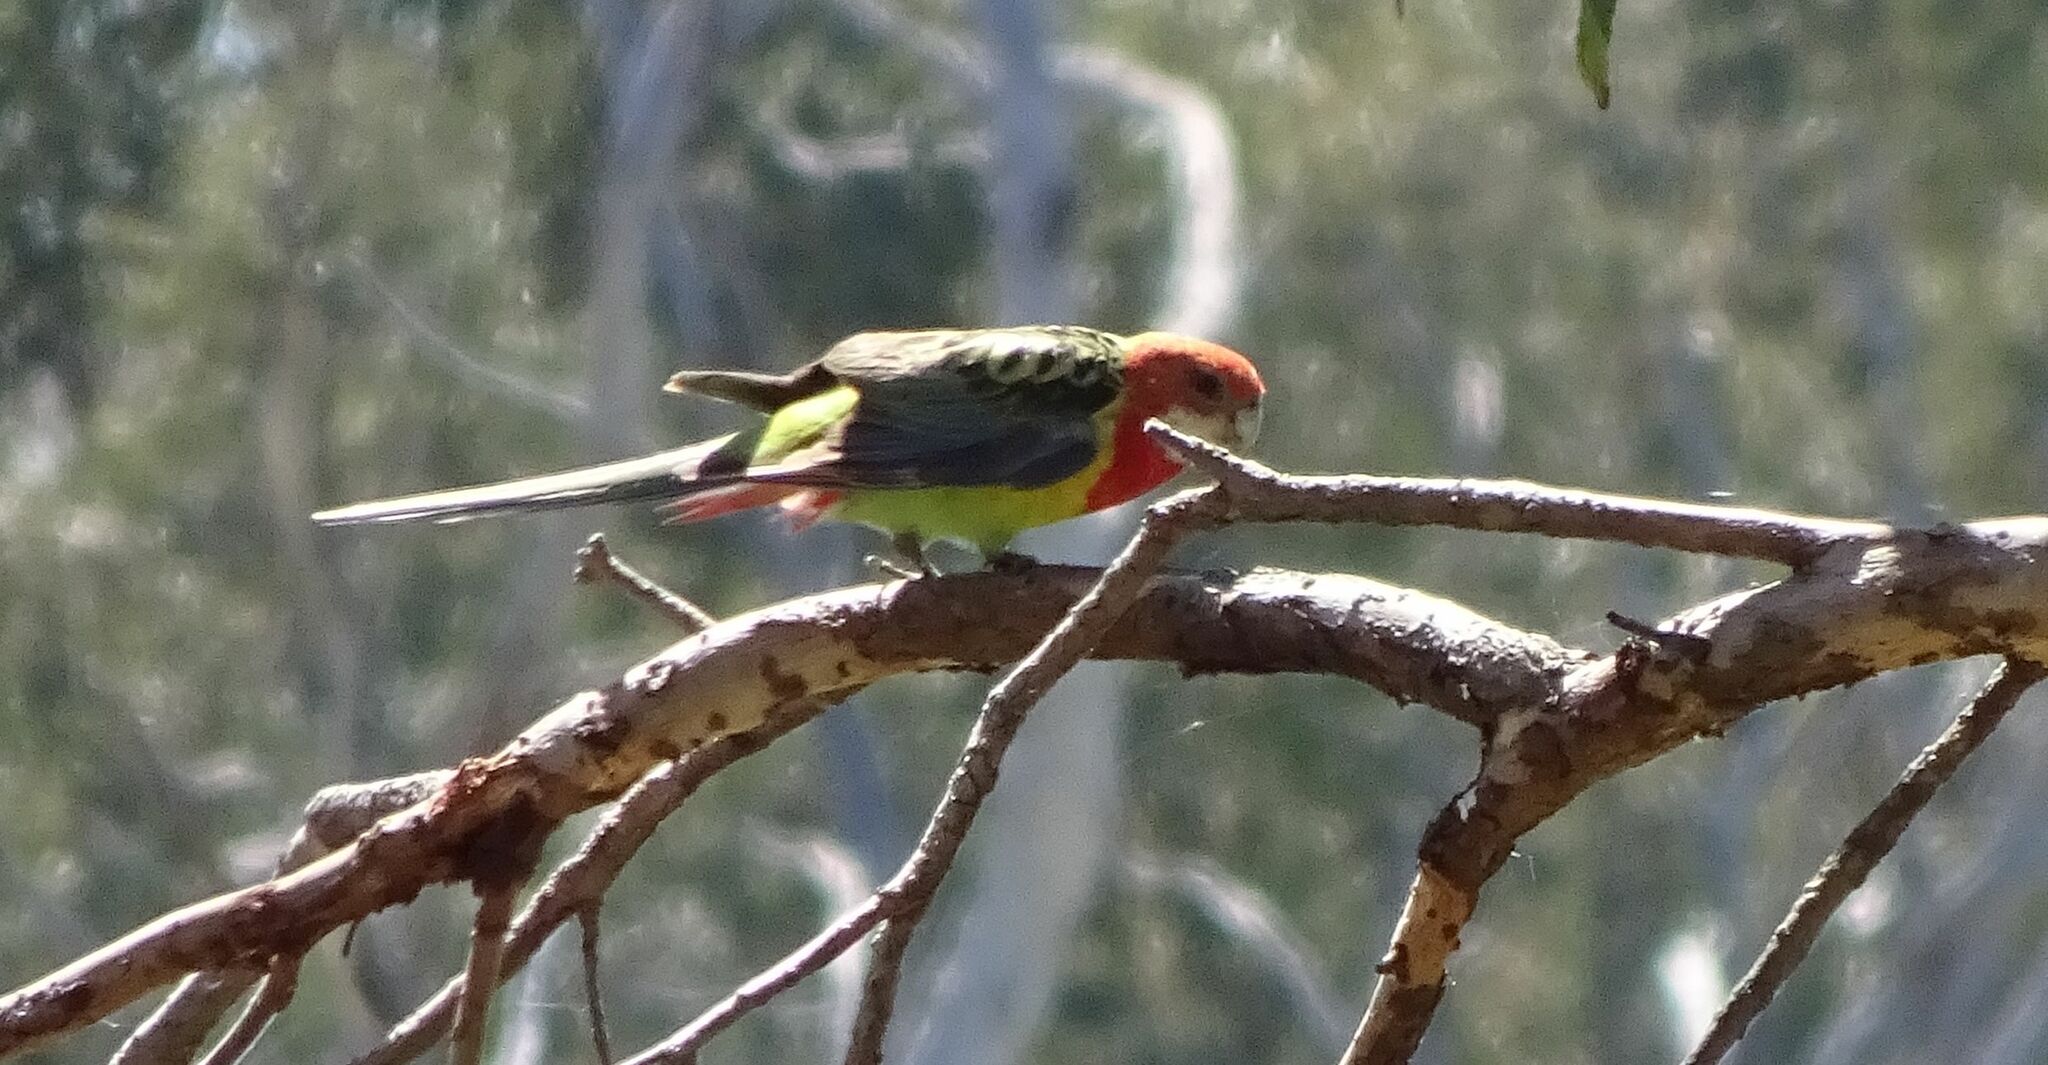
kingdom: Animalia
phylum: Chordata
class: Aves
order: Psittaciformes
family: Psittacidae
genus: Platycercus
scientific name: Platycercus eximius
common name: Eastern rosella
